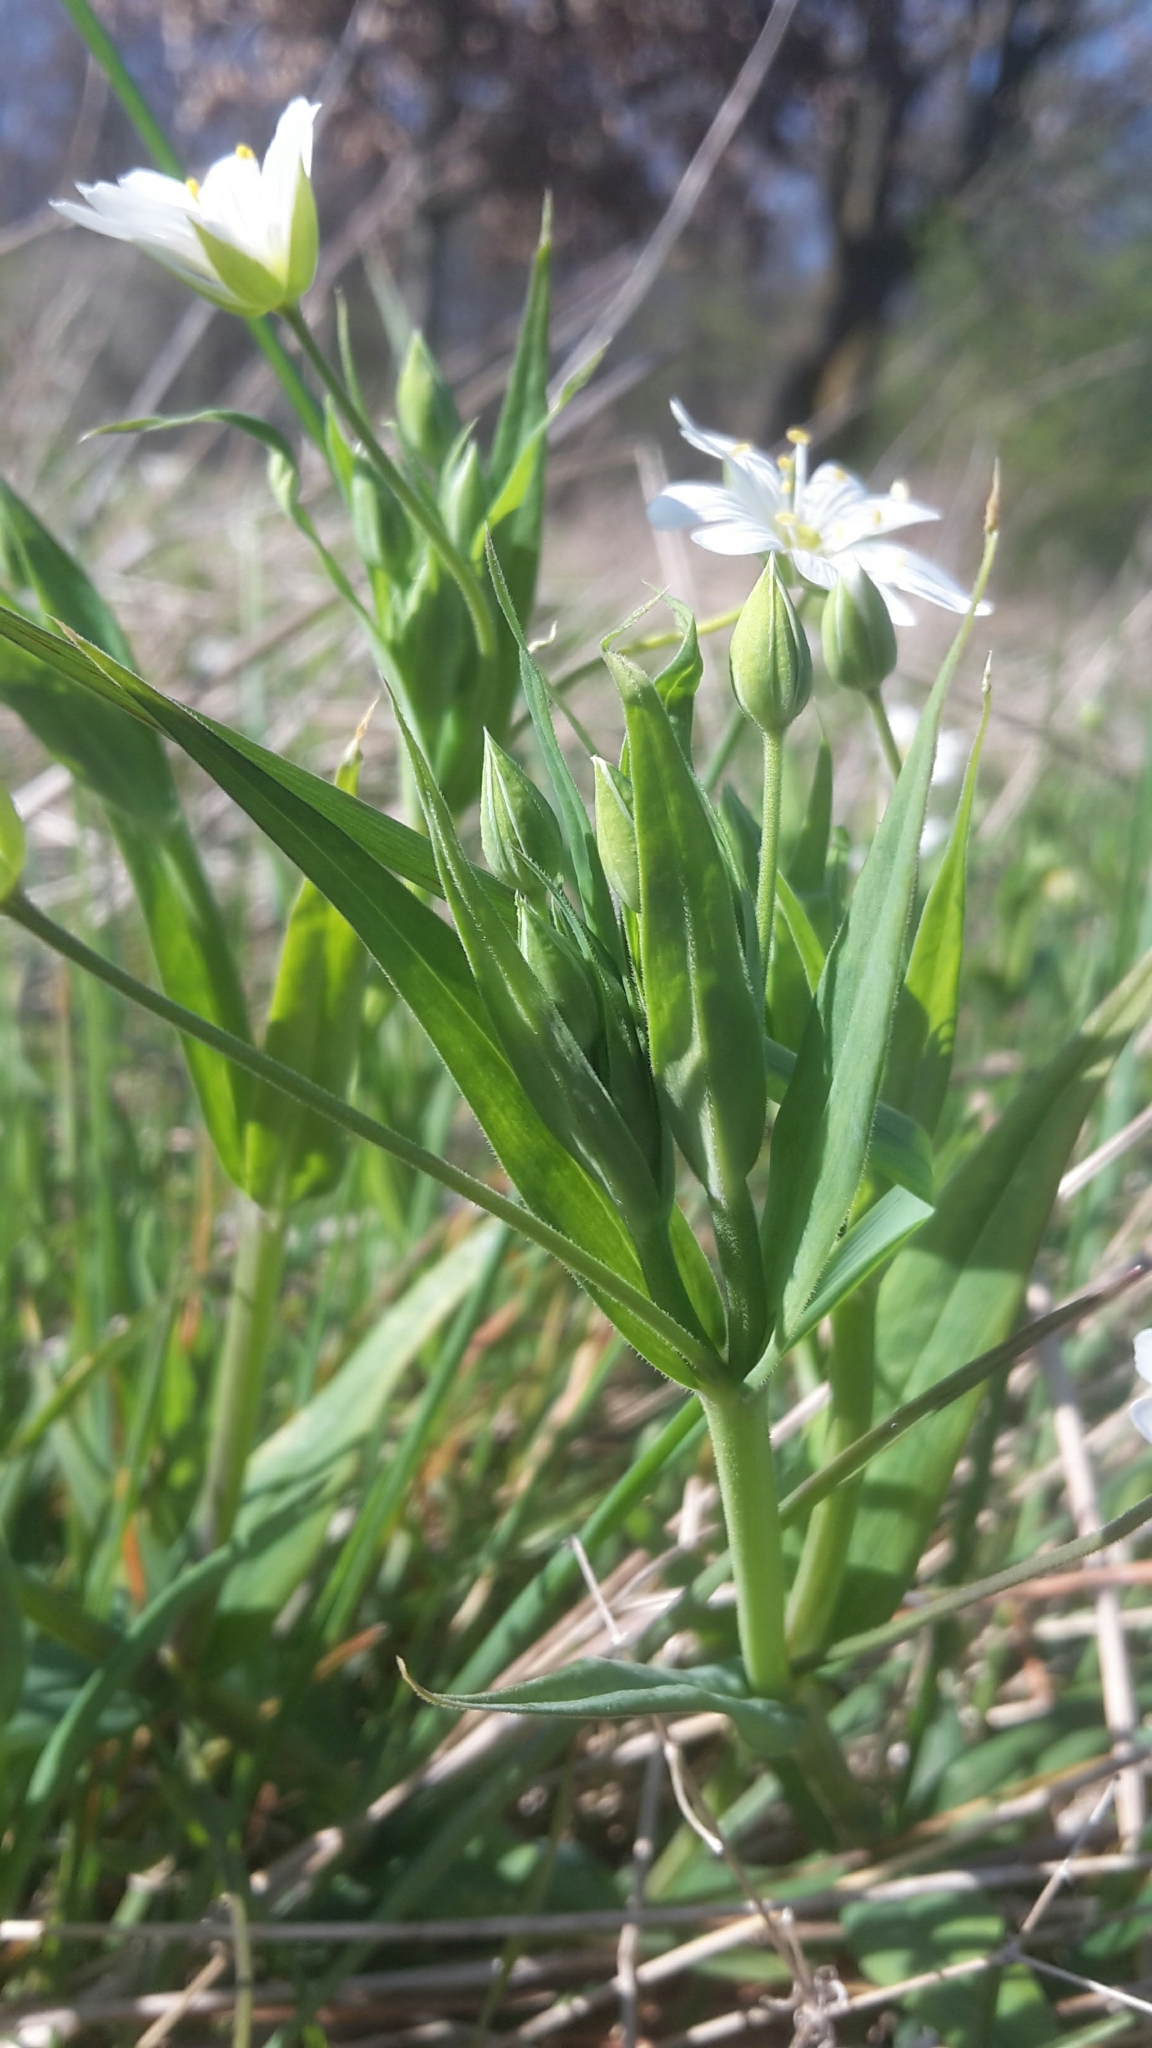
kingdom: Plantae
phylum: Tracheophyta
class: Magnoliopsida
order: Caryophyllales
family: Caryophyllaceae
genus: Rabelera
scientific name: Rabelera holostea
